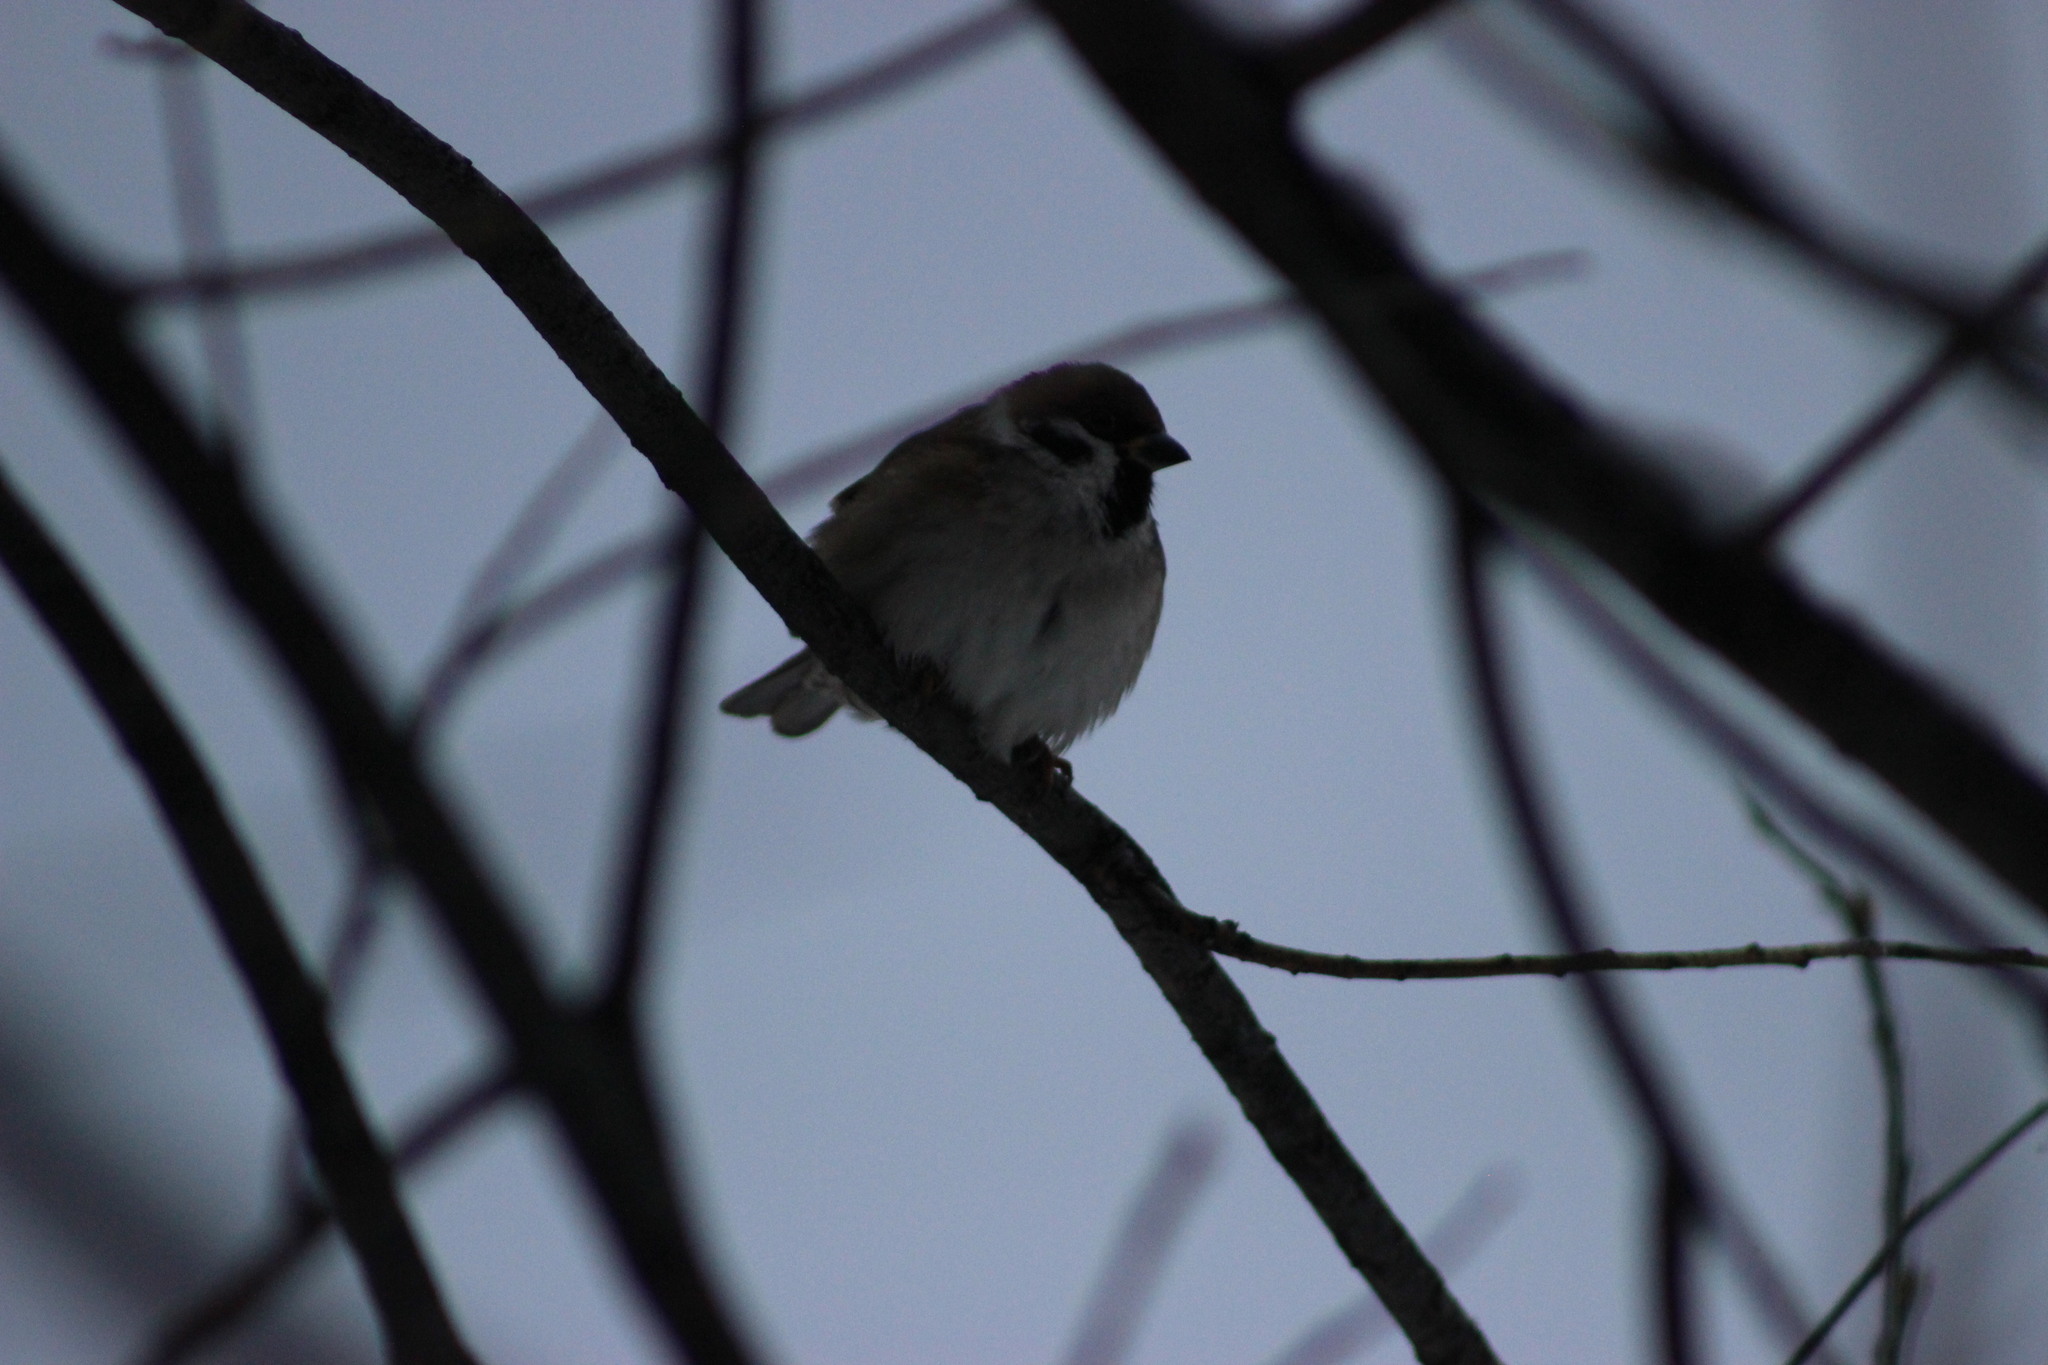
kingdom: Animalia
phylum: Chordata
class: Aves
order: Passeriformes
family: Passeridae
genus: Passer
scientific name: Passer montanus
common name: Eurasian tree sparrow
